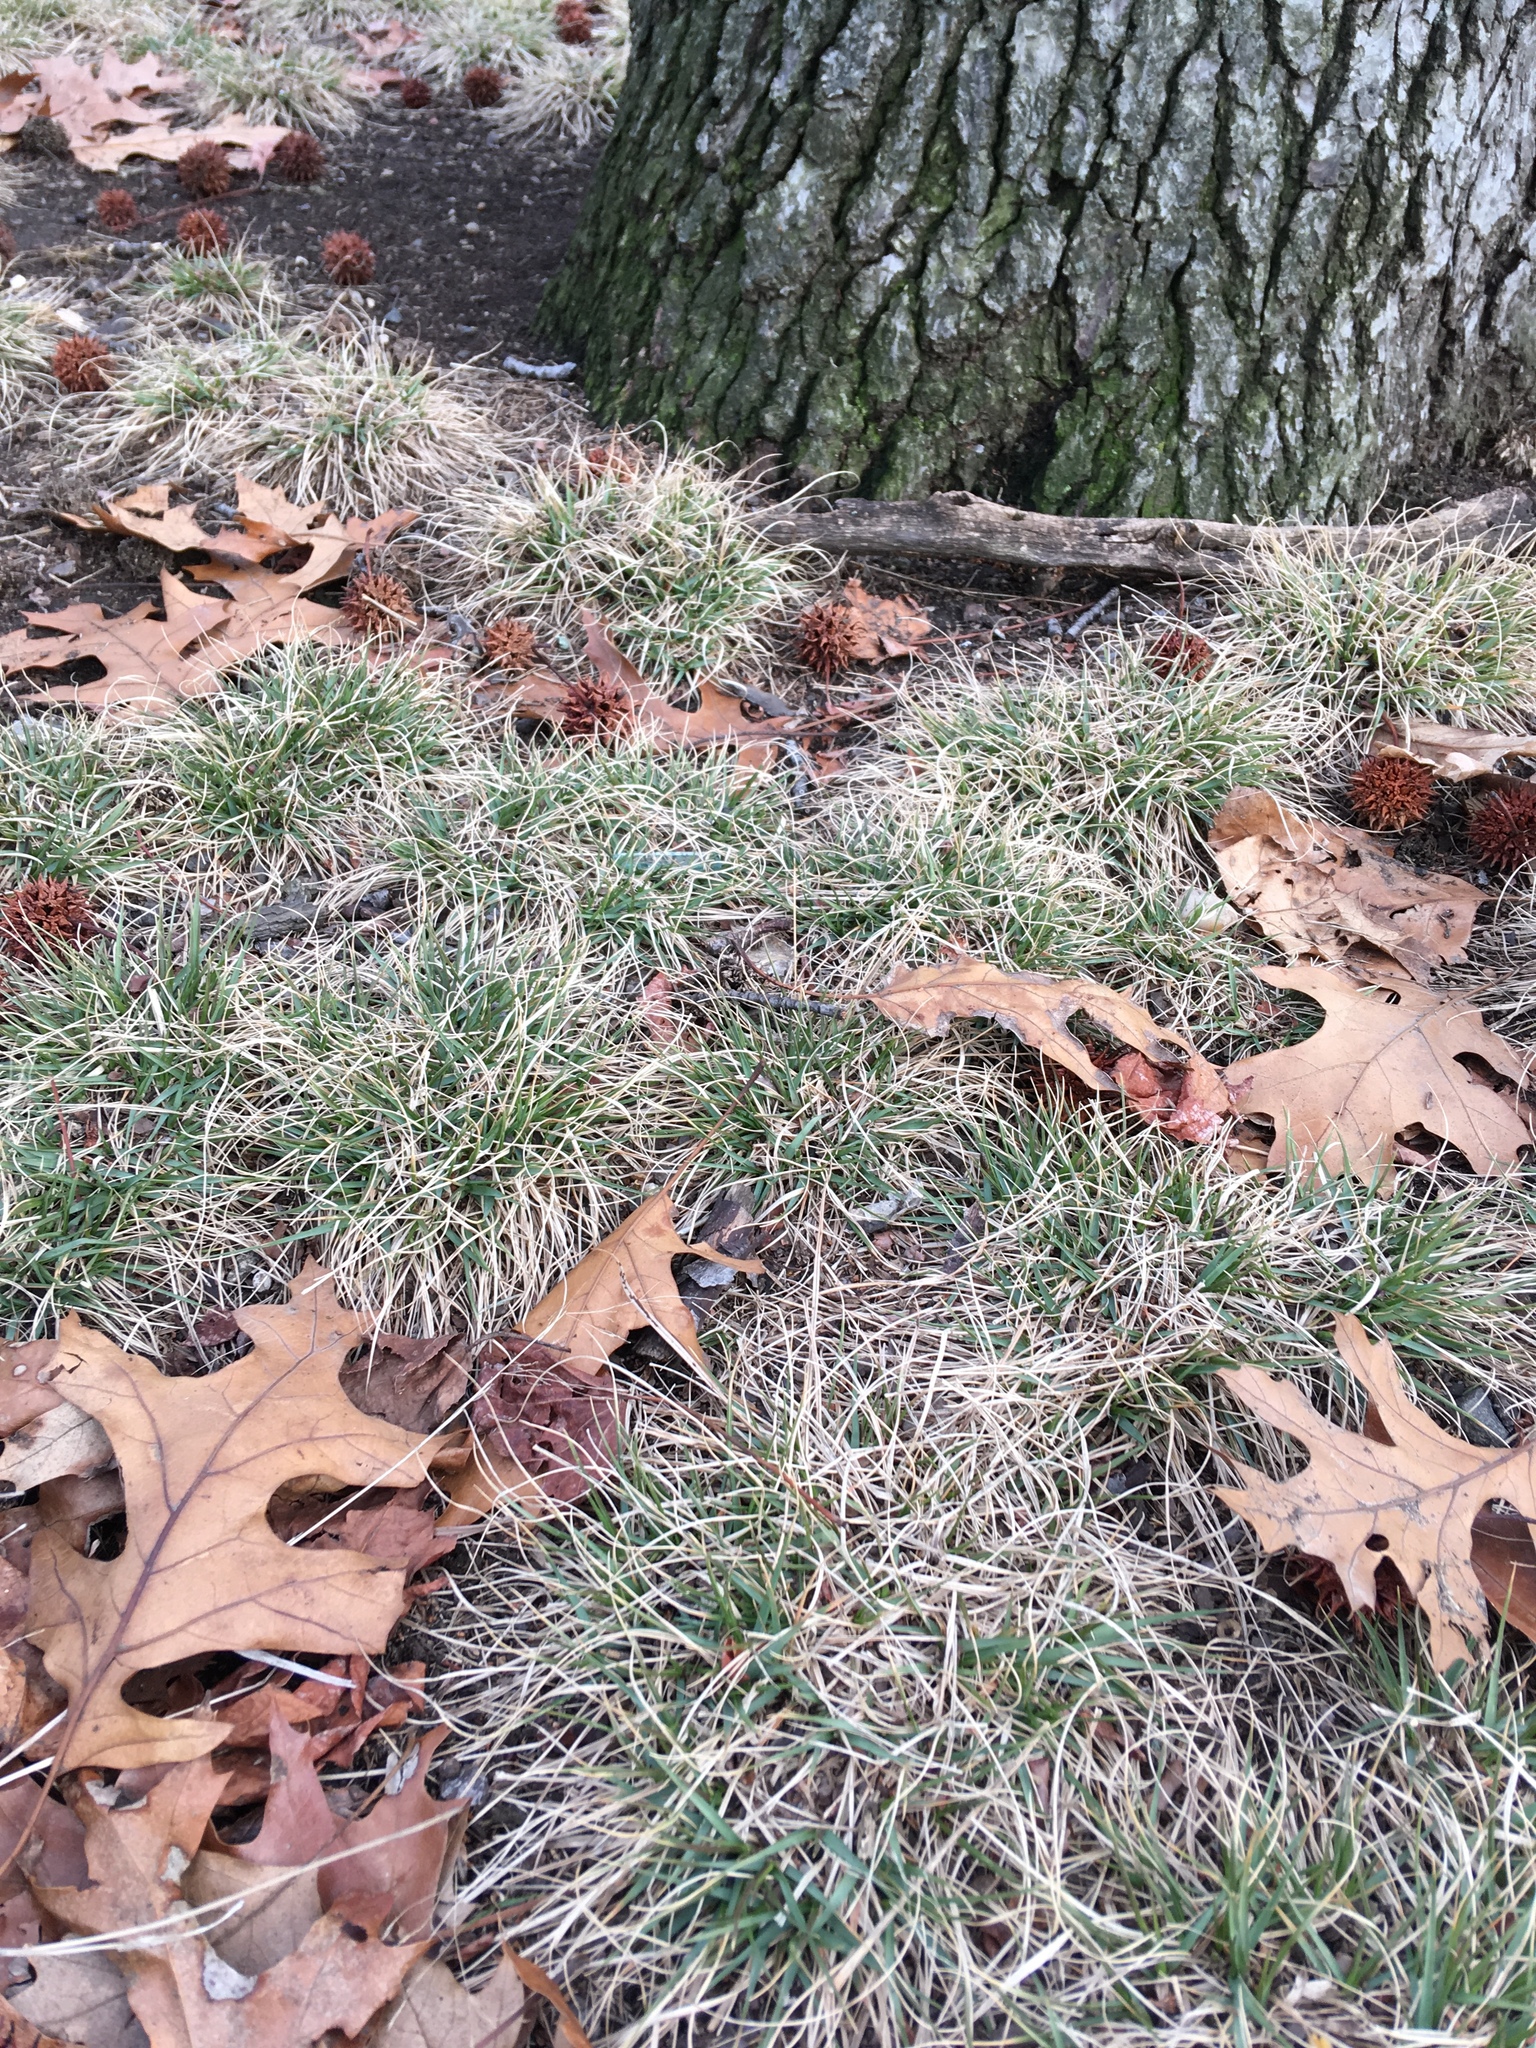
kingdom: Plantae
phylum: Tracheophyta
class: Liliopsida
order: Poales
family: Cyperaceae
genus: Carex
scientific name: Carex pensylvanica
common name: Common oak sedge
